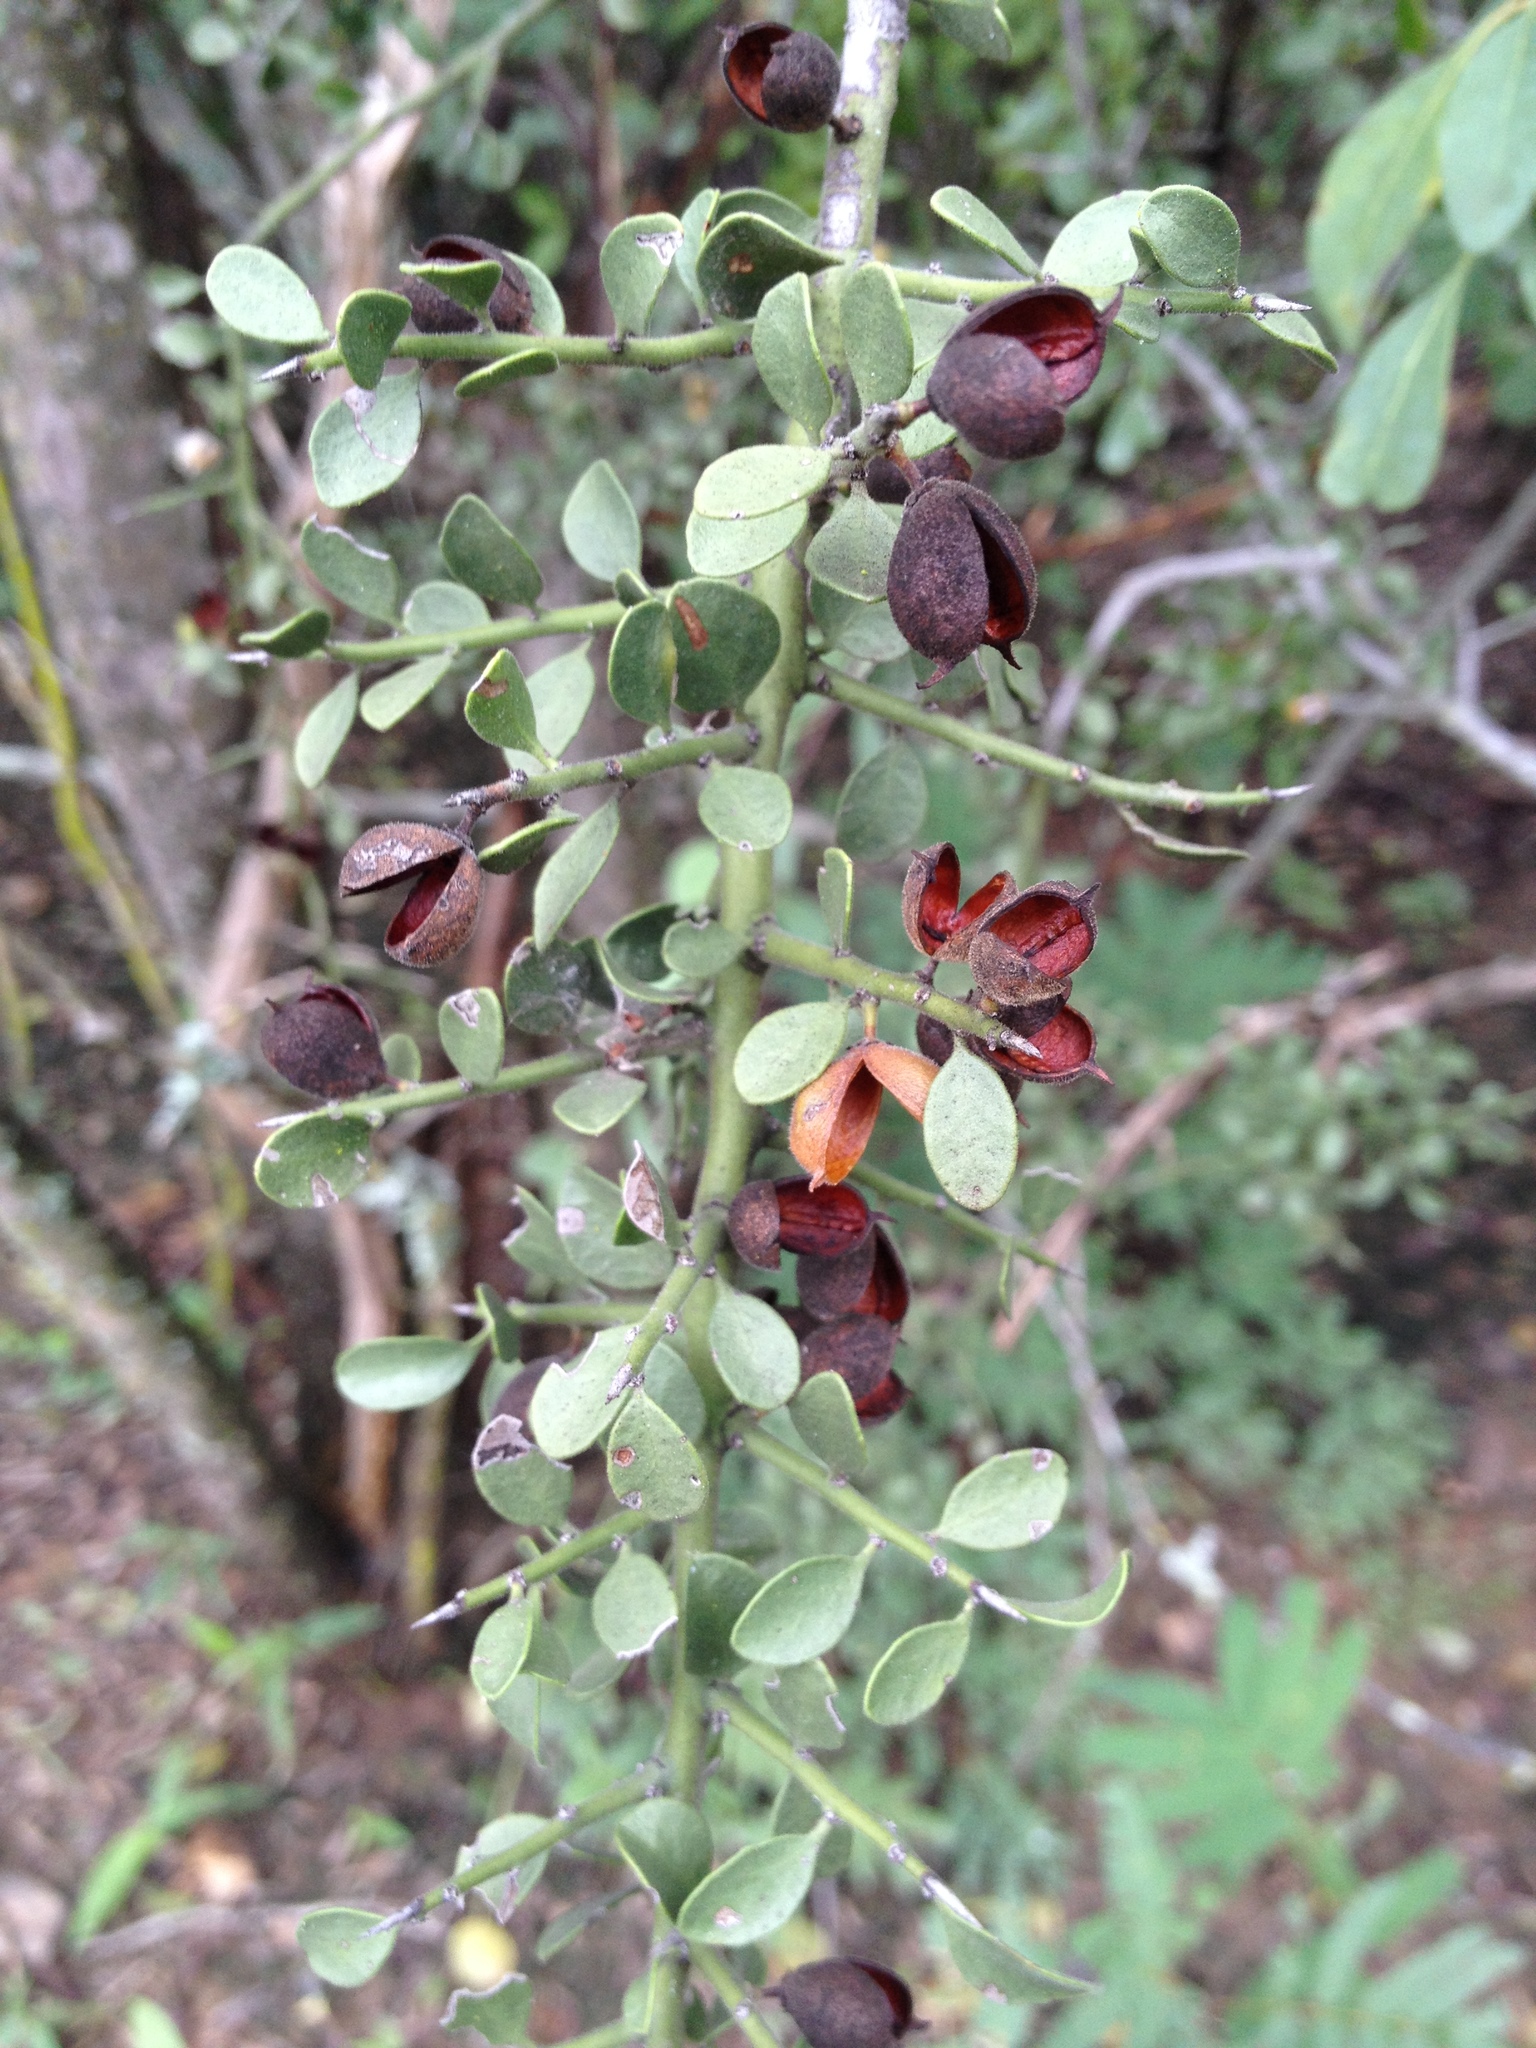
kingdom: Plantae
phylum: Tracheophyta
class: Magnoliopsida
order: Celastrales
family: Celastraceae
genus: Monteverdia
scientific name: Monteverdia spinosa
